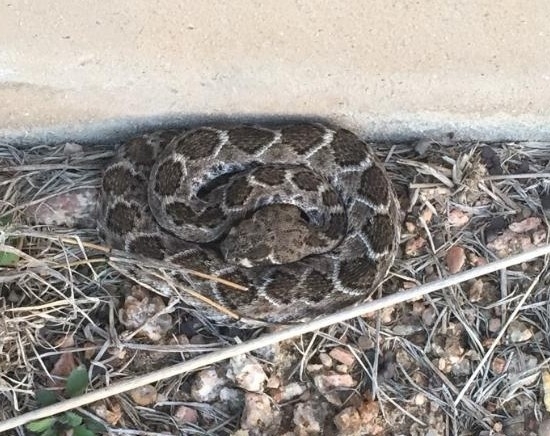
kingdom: Animalia
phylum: Chordata
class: Squamata
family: Viperidae
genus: Crotalus
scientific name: Crotalus atrox
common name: Western diamond-backed rattlesnake
